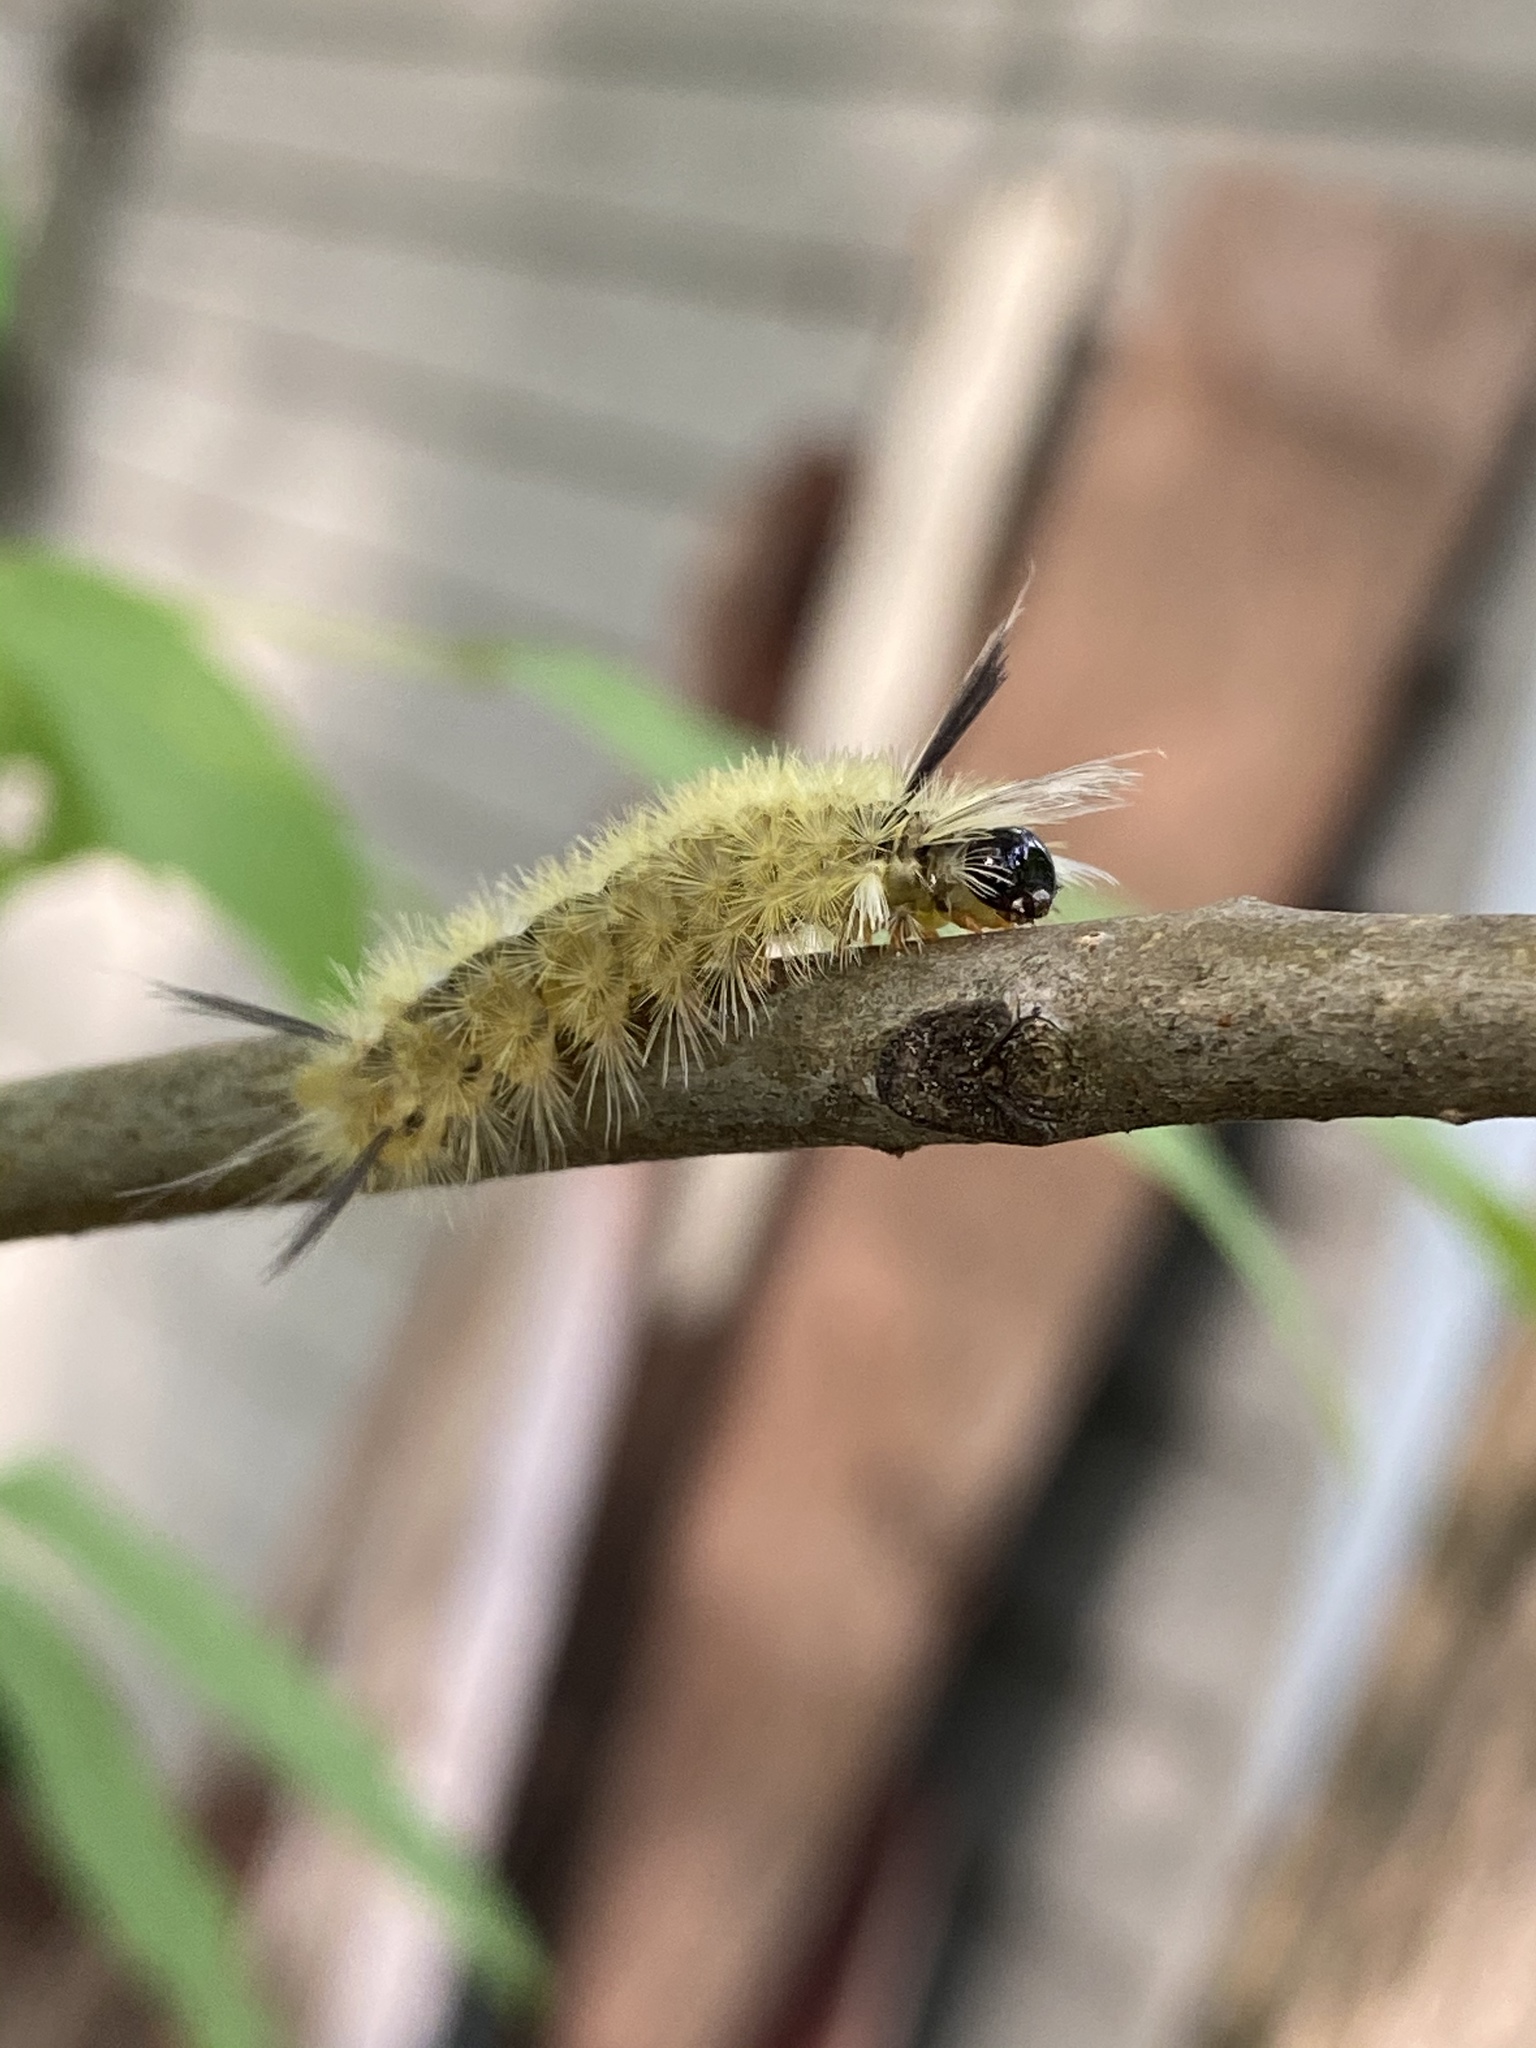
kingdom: Animalia
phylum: Arthropoda
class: Insecta
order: Lepidoptera
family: Erebidae
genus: Halysidota
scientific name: Halysidota tessellaris
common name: Banded tussock moth
